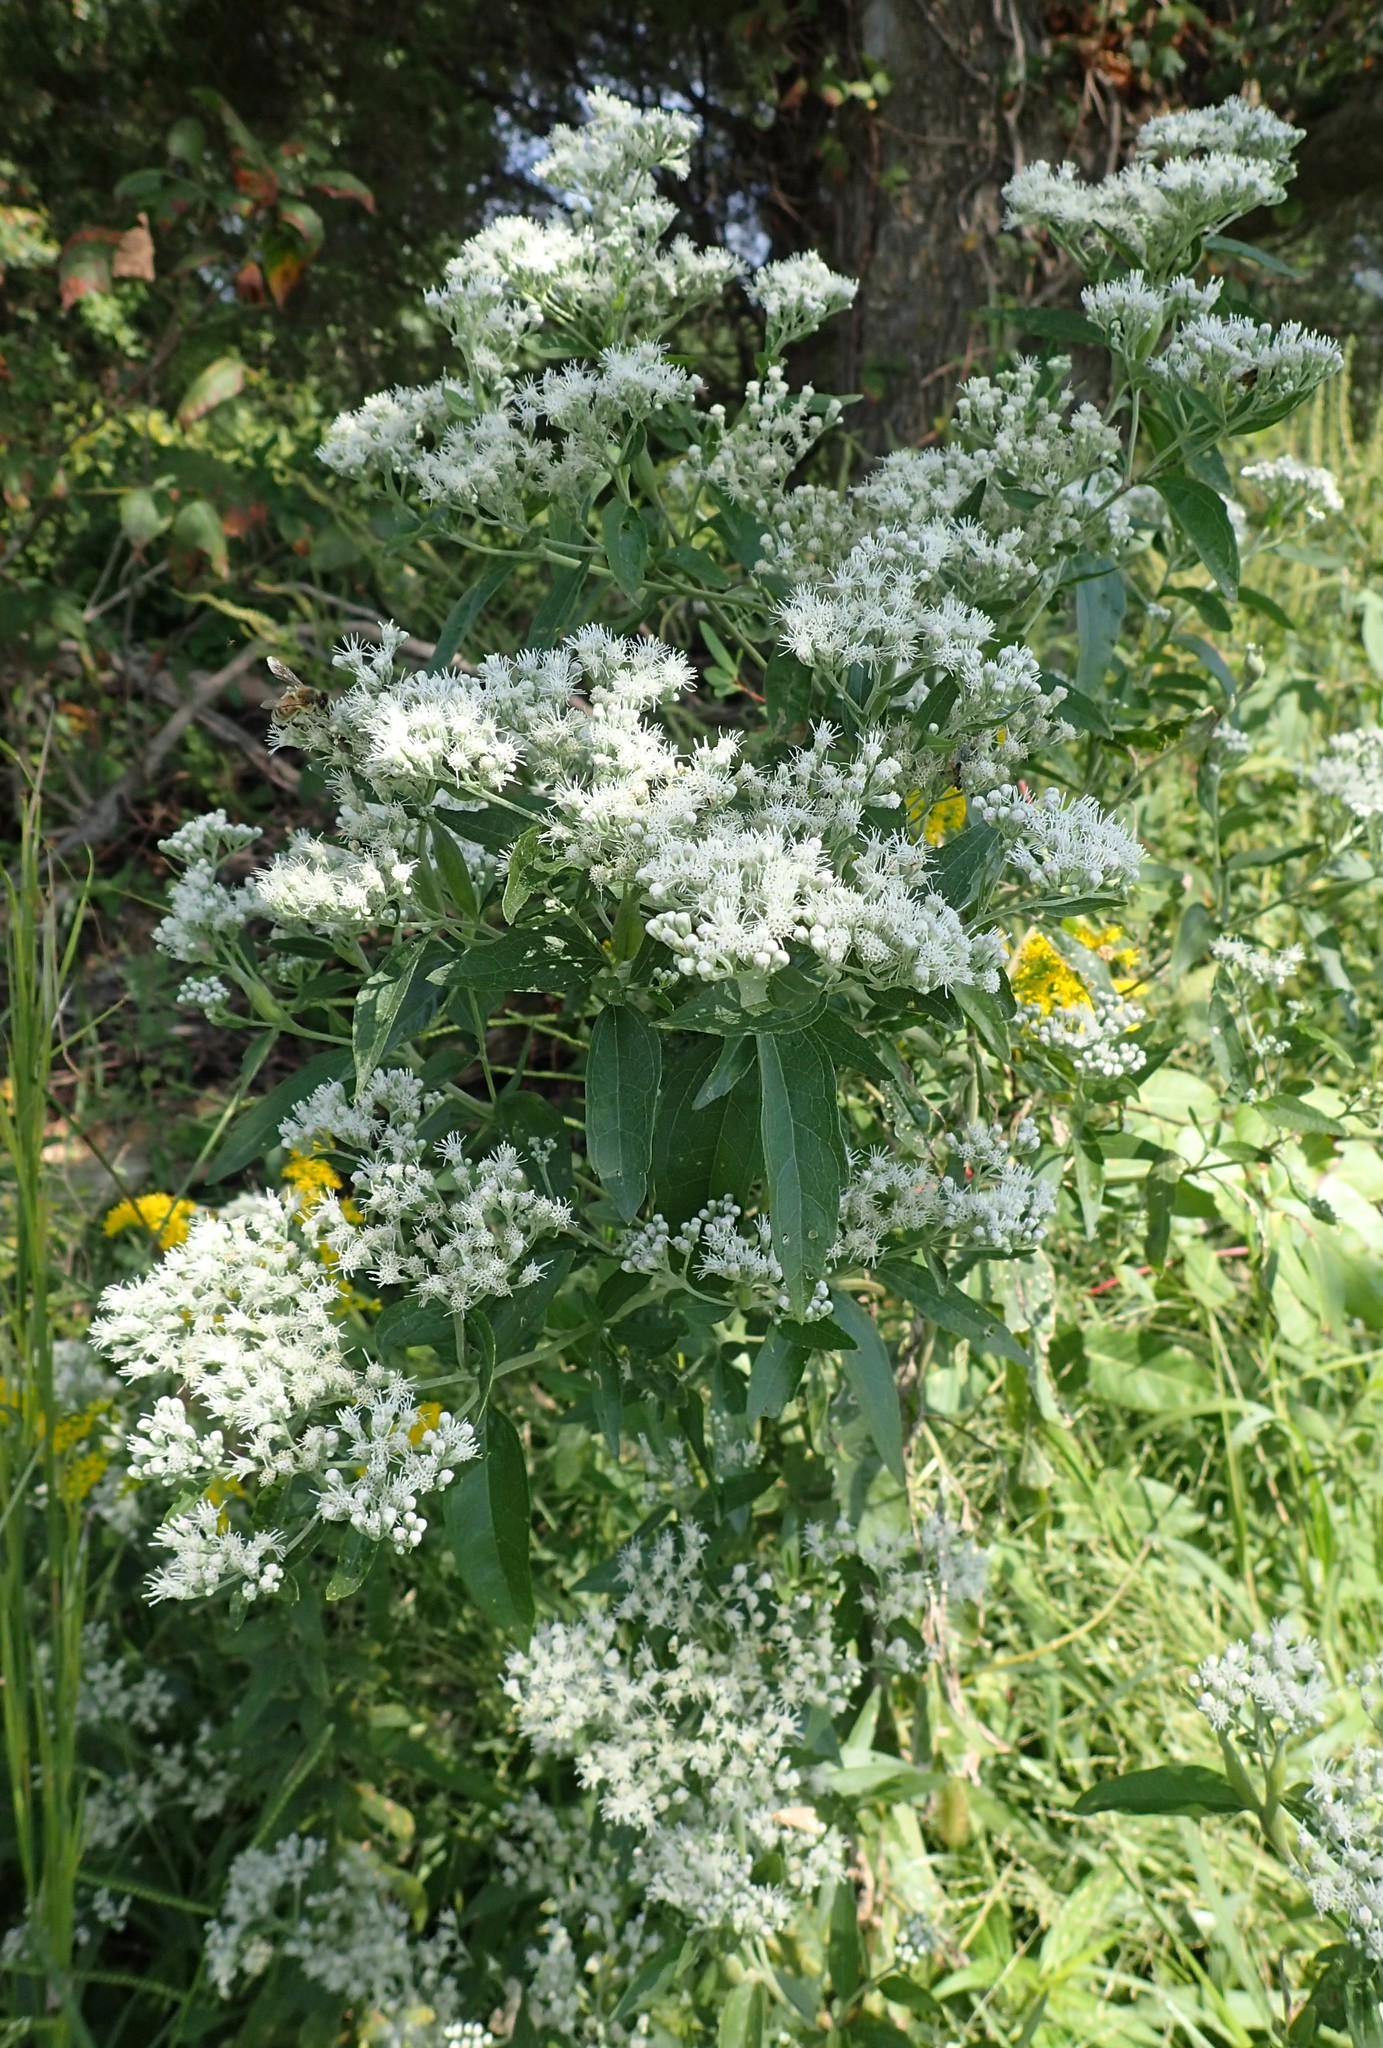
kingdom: Plantae
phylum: Tracheophyta
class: Magnoliopsida
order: Asterales
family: Asteraceae
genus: Eupatorium
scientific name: Eupatorium serotinum
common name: Late boneset
